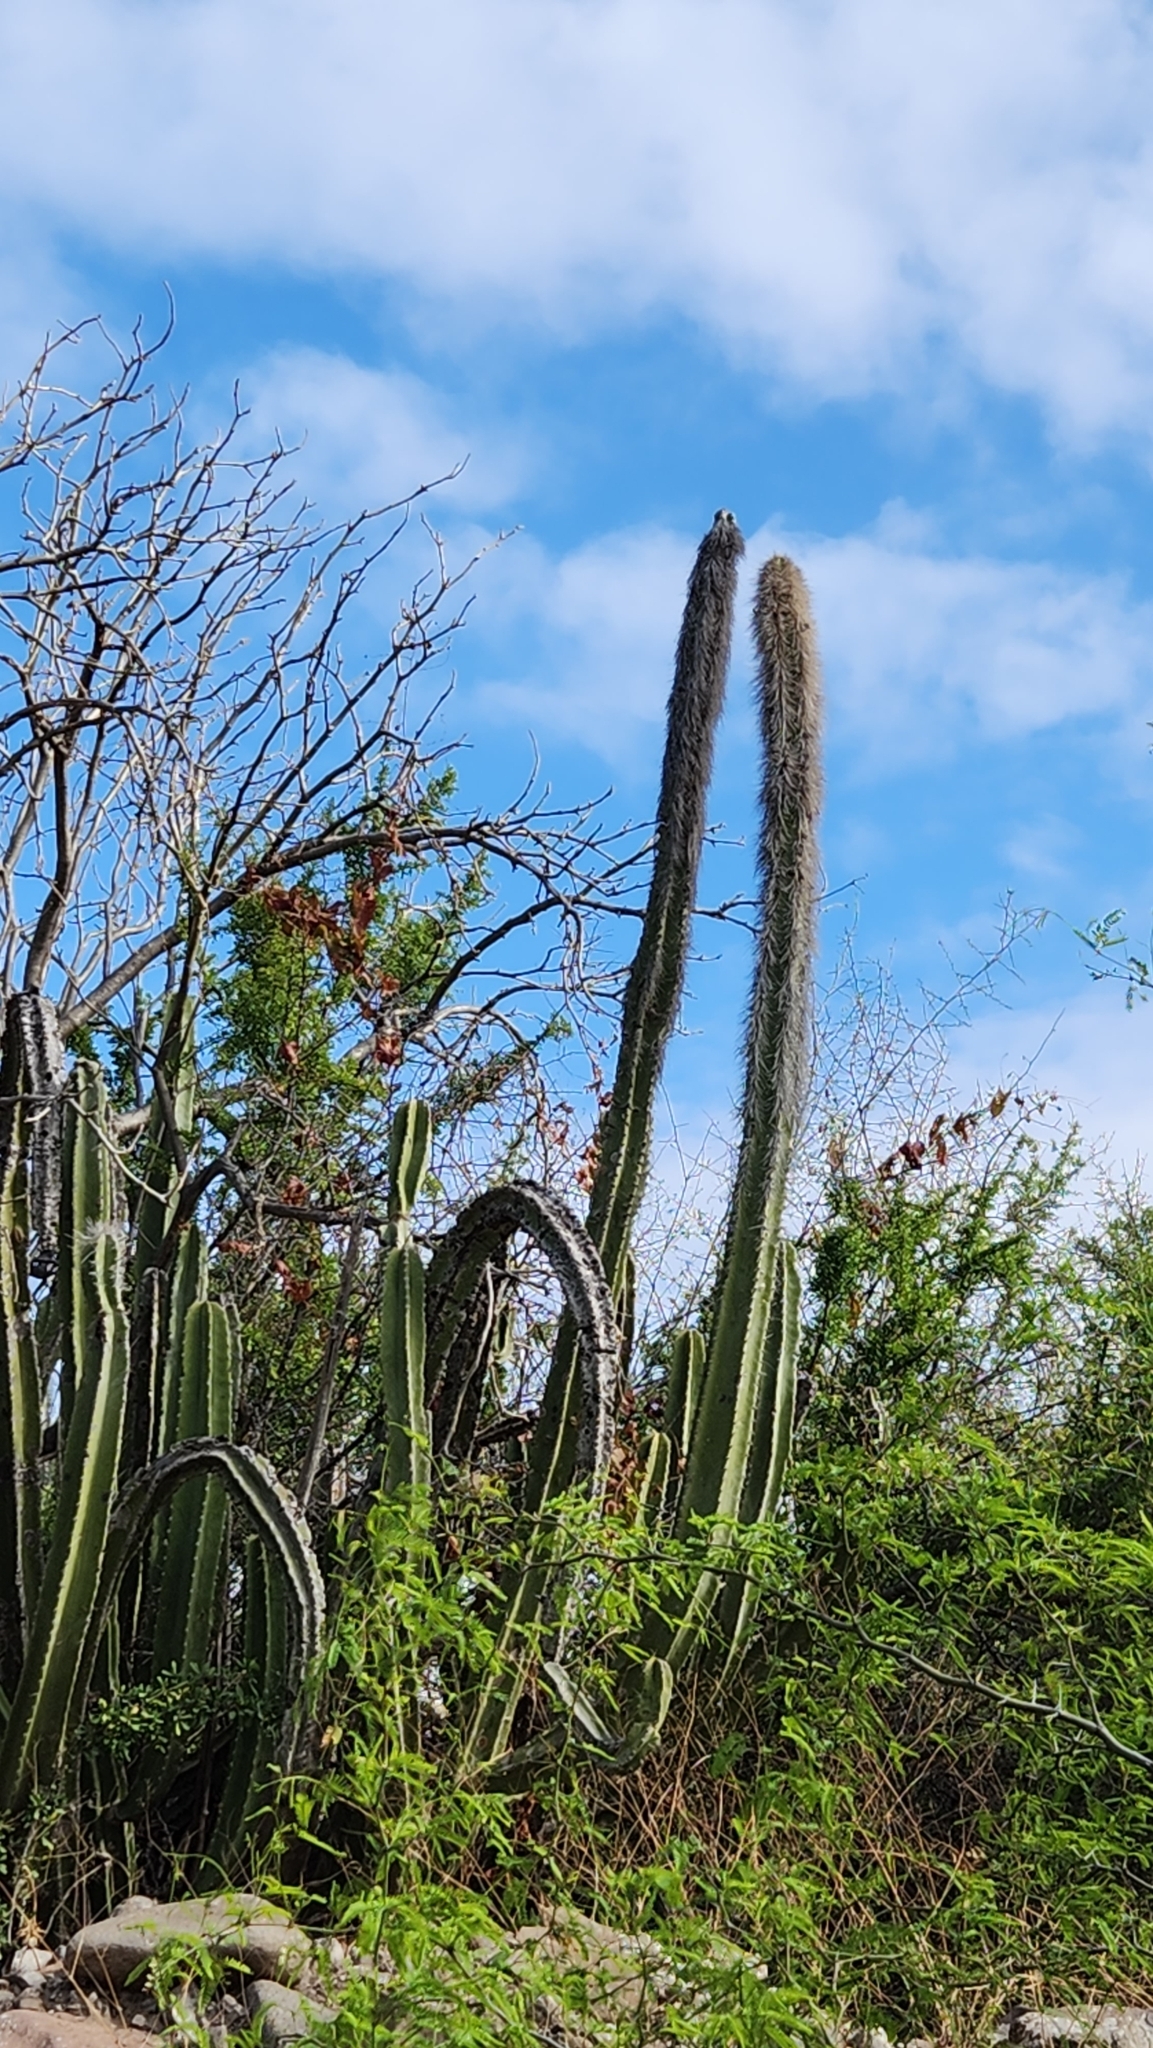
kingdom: Plantae
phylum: Tracheophyta
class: Magnoliopsida
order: Caryophyllales
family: Cactaceae
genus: Pachycereus
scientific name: Pachycereus schottii
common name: Senita cactus
